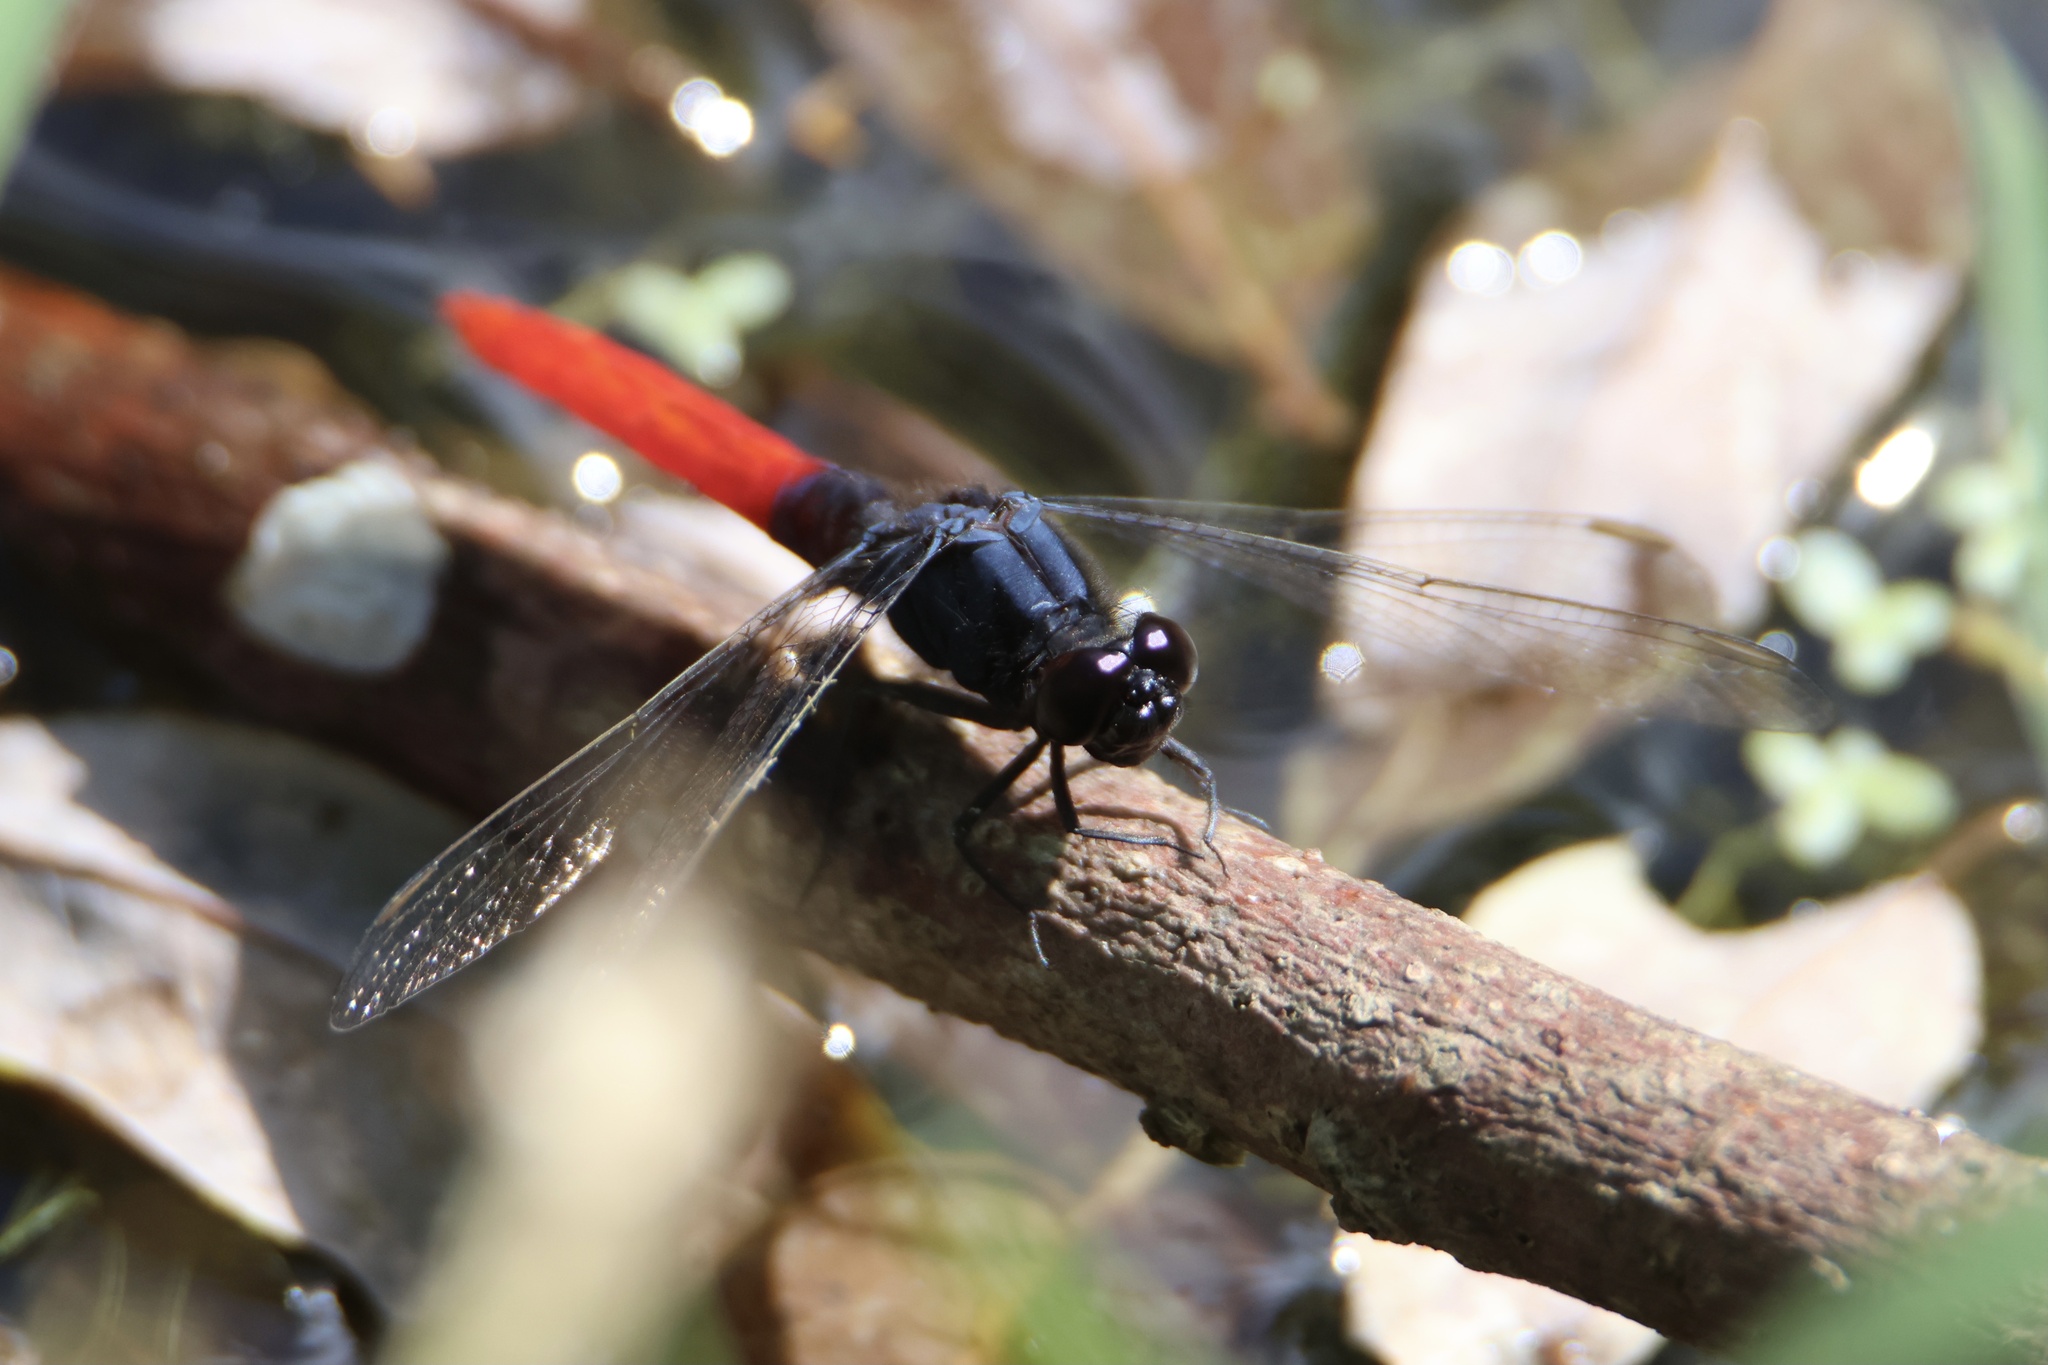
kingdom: Animalia
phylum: Arthropoda
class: Insecta
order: Odonata
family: Libellulidae
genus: Erythemis
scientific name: Erythemis peruviana
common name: Flame-tailed pondhawk
